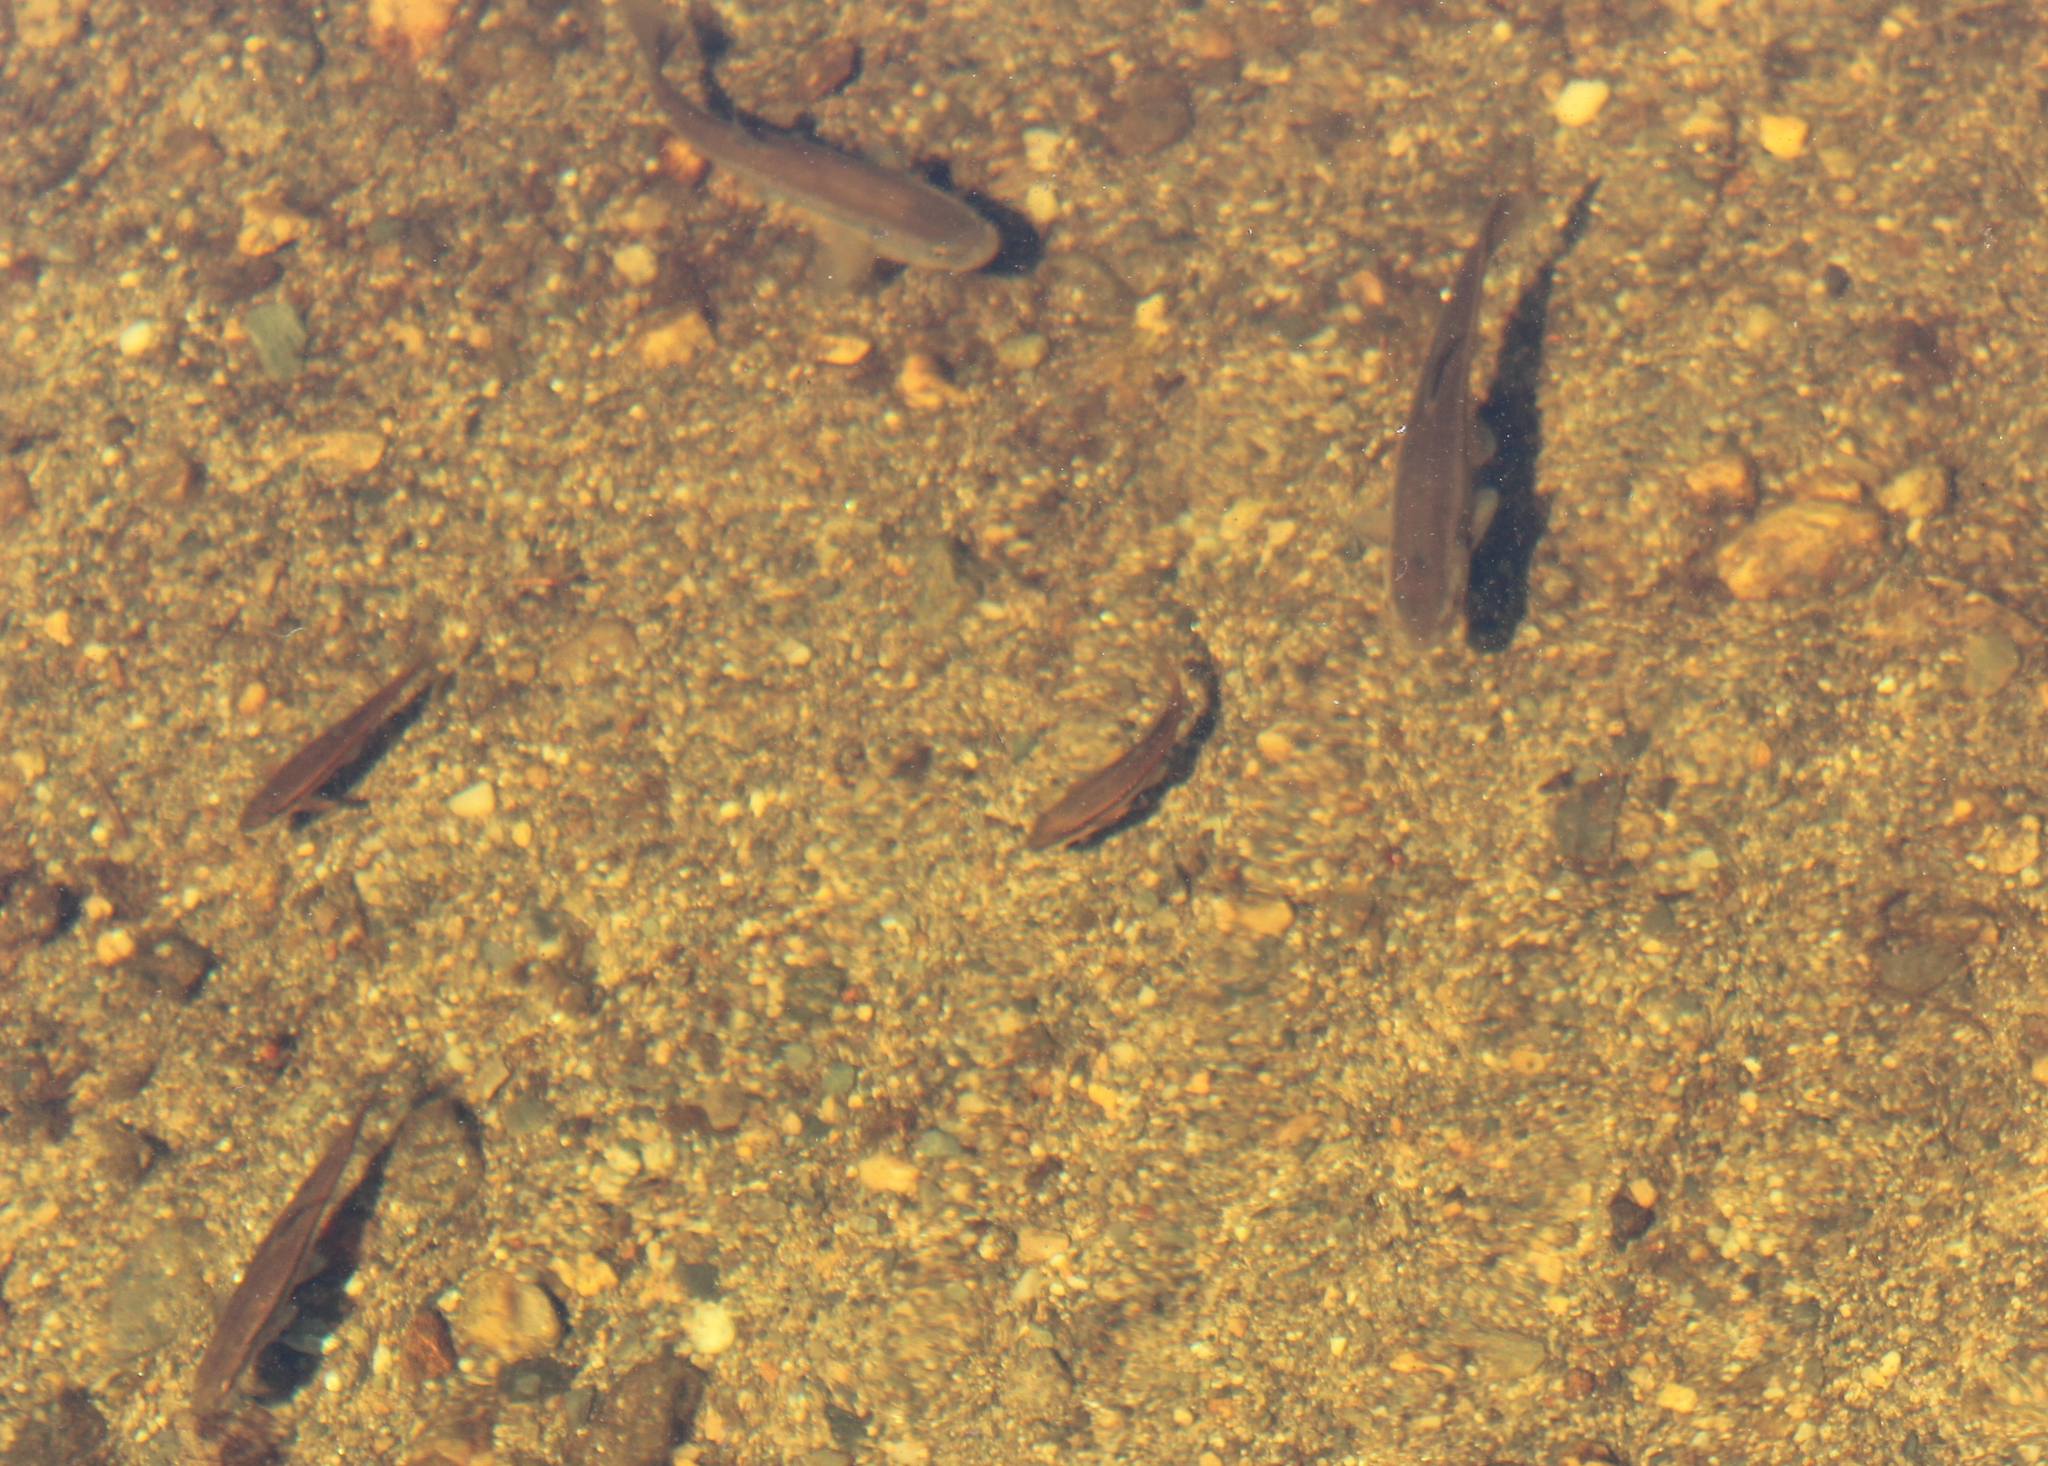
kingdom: Animalia
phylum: Chordata
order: Cypriniformes
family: Cyprinidae
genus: Rhinichthys
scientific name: Rhinichthys atratulus
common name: Eastern blacknose dace
